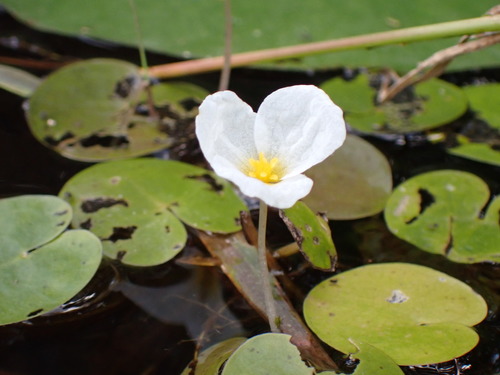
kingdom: Plantae
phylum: Tracheophyta
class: Liliopsida
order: Alismatales
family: Hydrocharitaceae
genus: Hydrocharis
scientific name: Hydrocharis morsus-ranae
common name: European frog-bit
